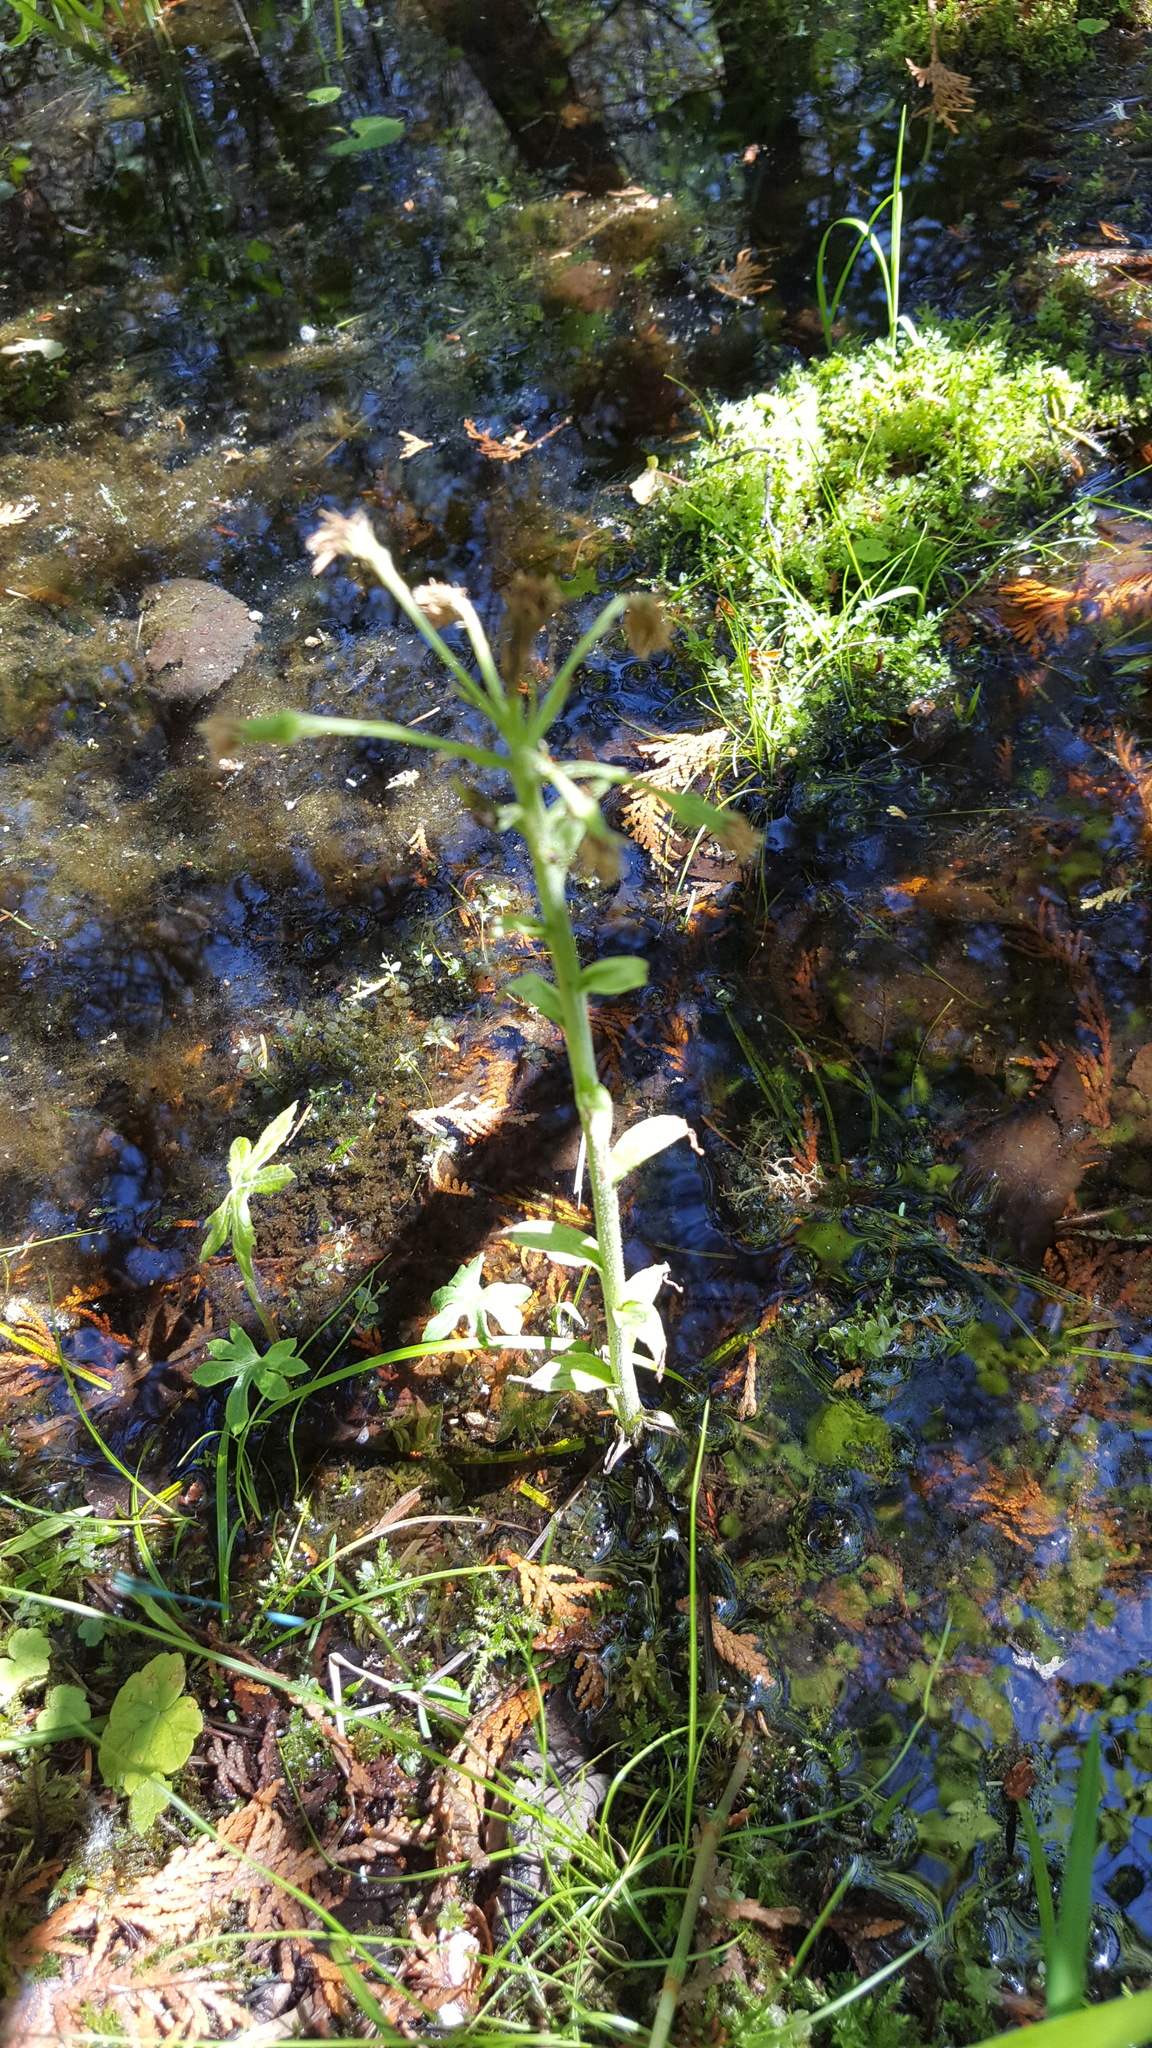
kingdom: Plantae
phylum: Tracheophyta
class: Magnoliopsida
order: Asterales
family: Asteraceae
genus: Petasites
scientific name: Petasites frigidus
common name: Arctic butterbur
